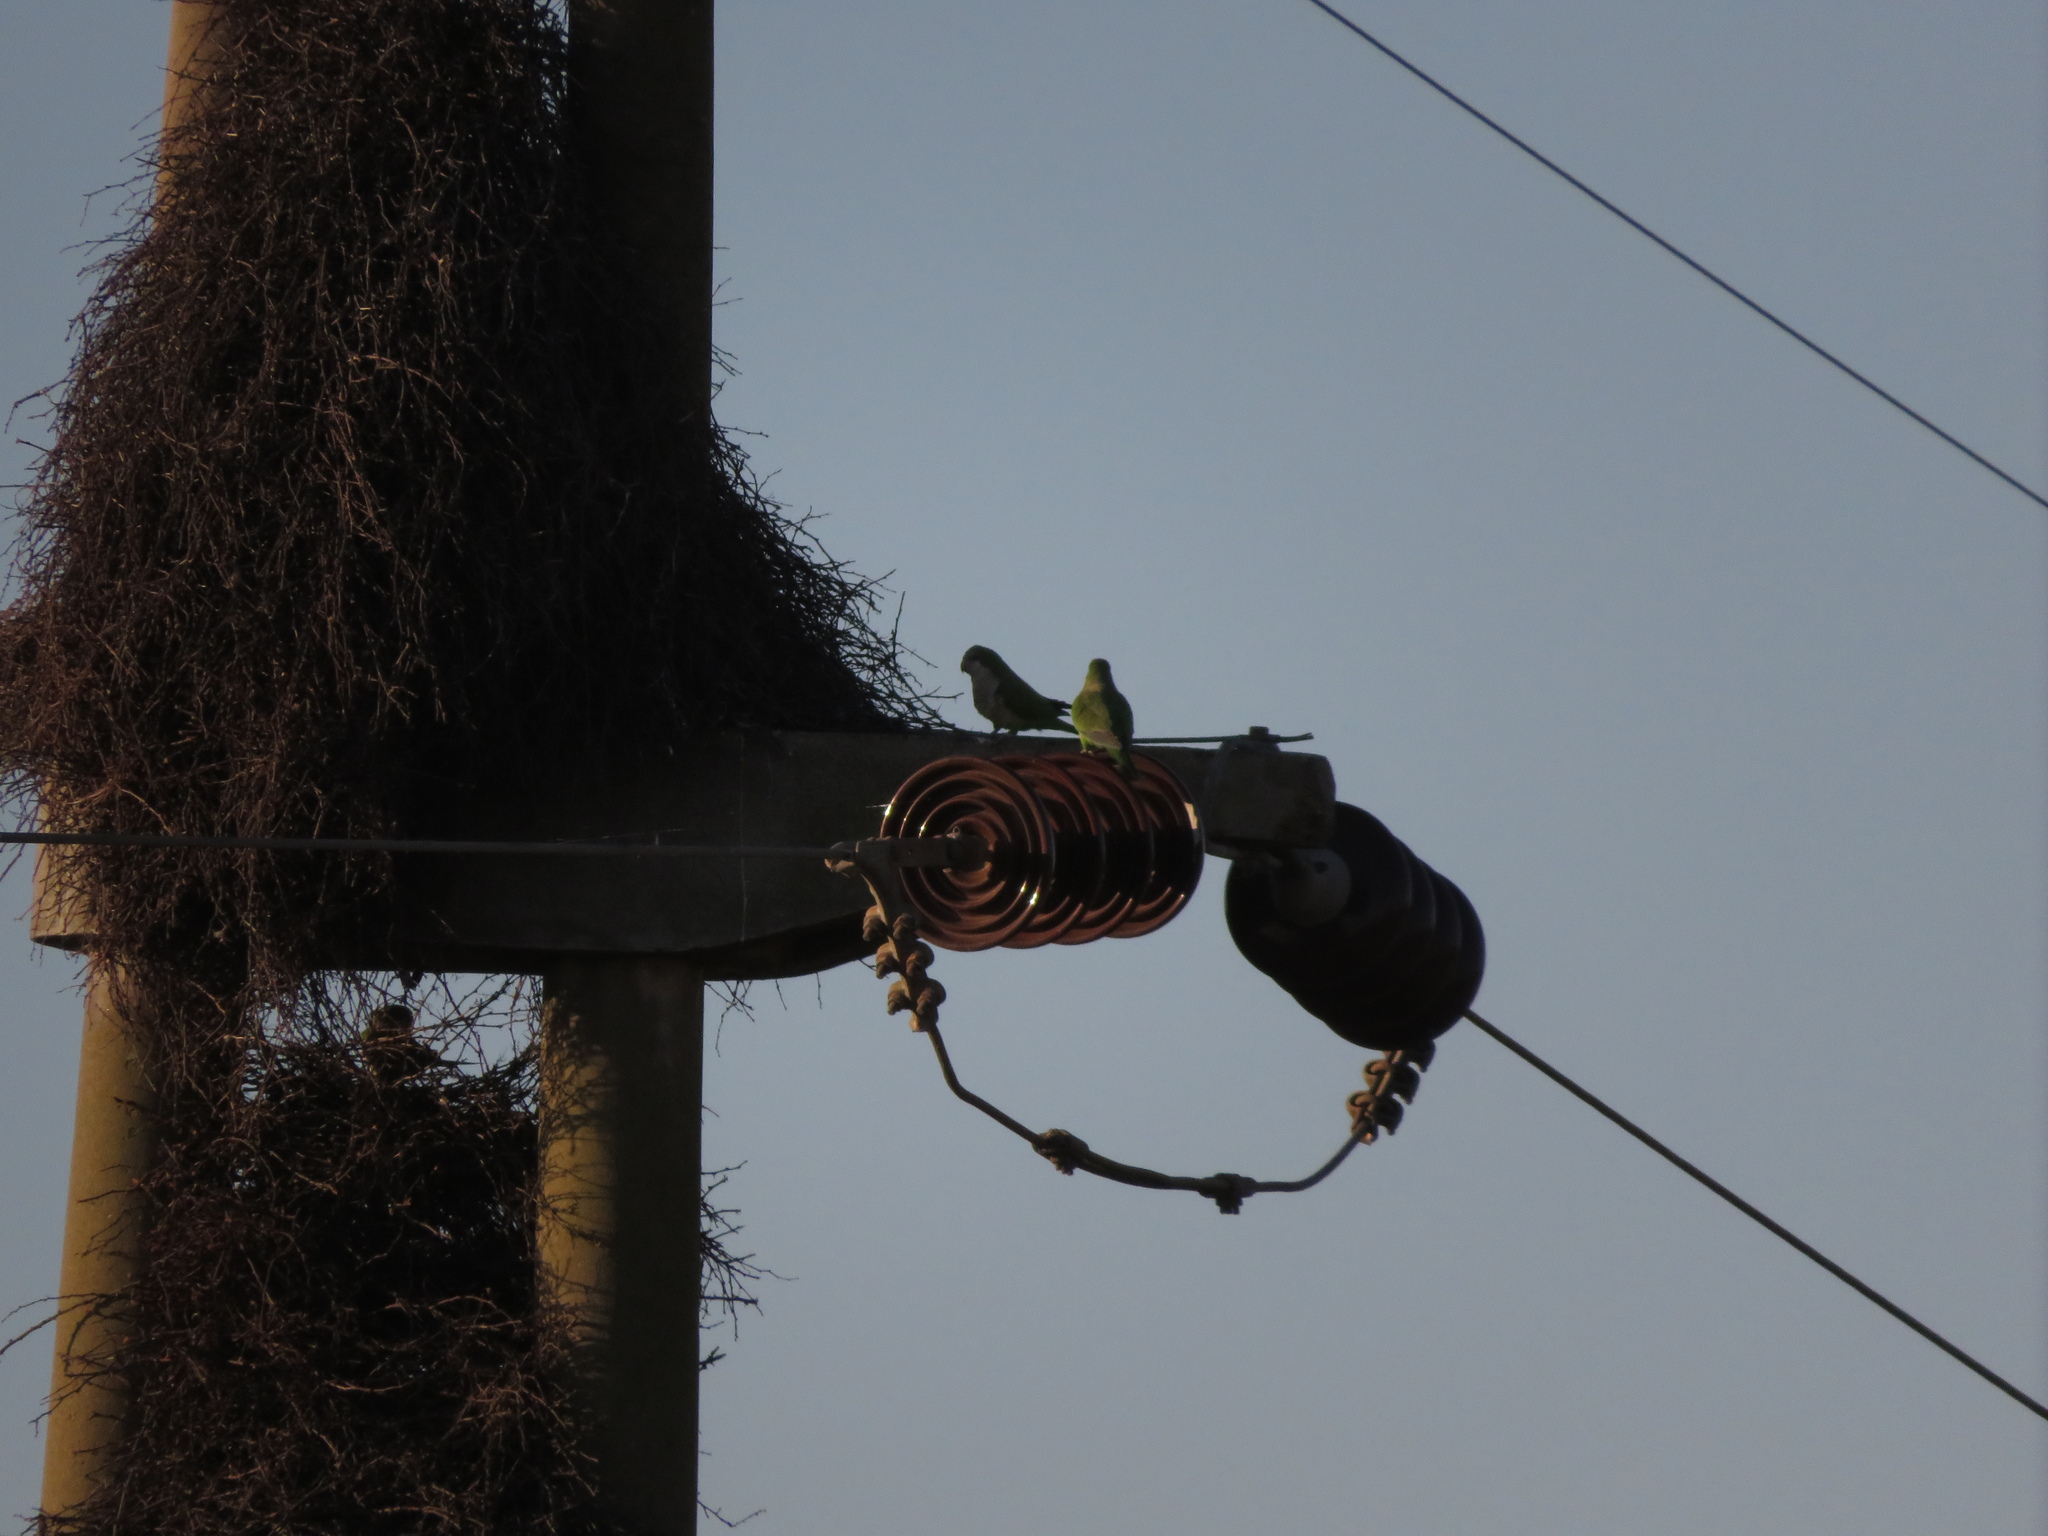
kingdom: Animalia
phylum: Chordata
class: Aves
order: Psittaciformes
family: Psittacidae
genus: Myiopsitta
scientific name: Myiopsitta monachus
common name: Monk parakeet
